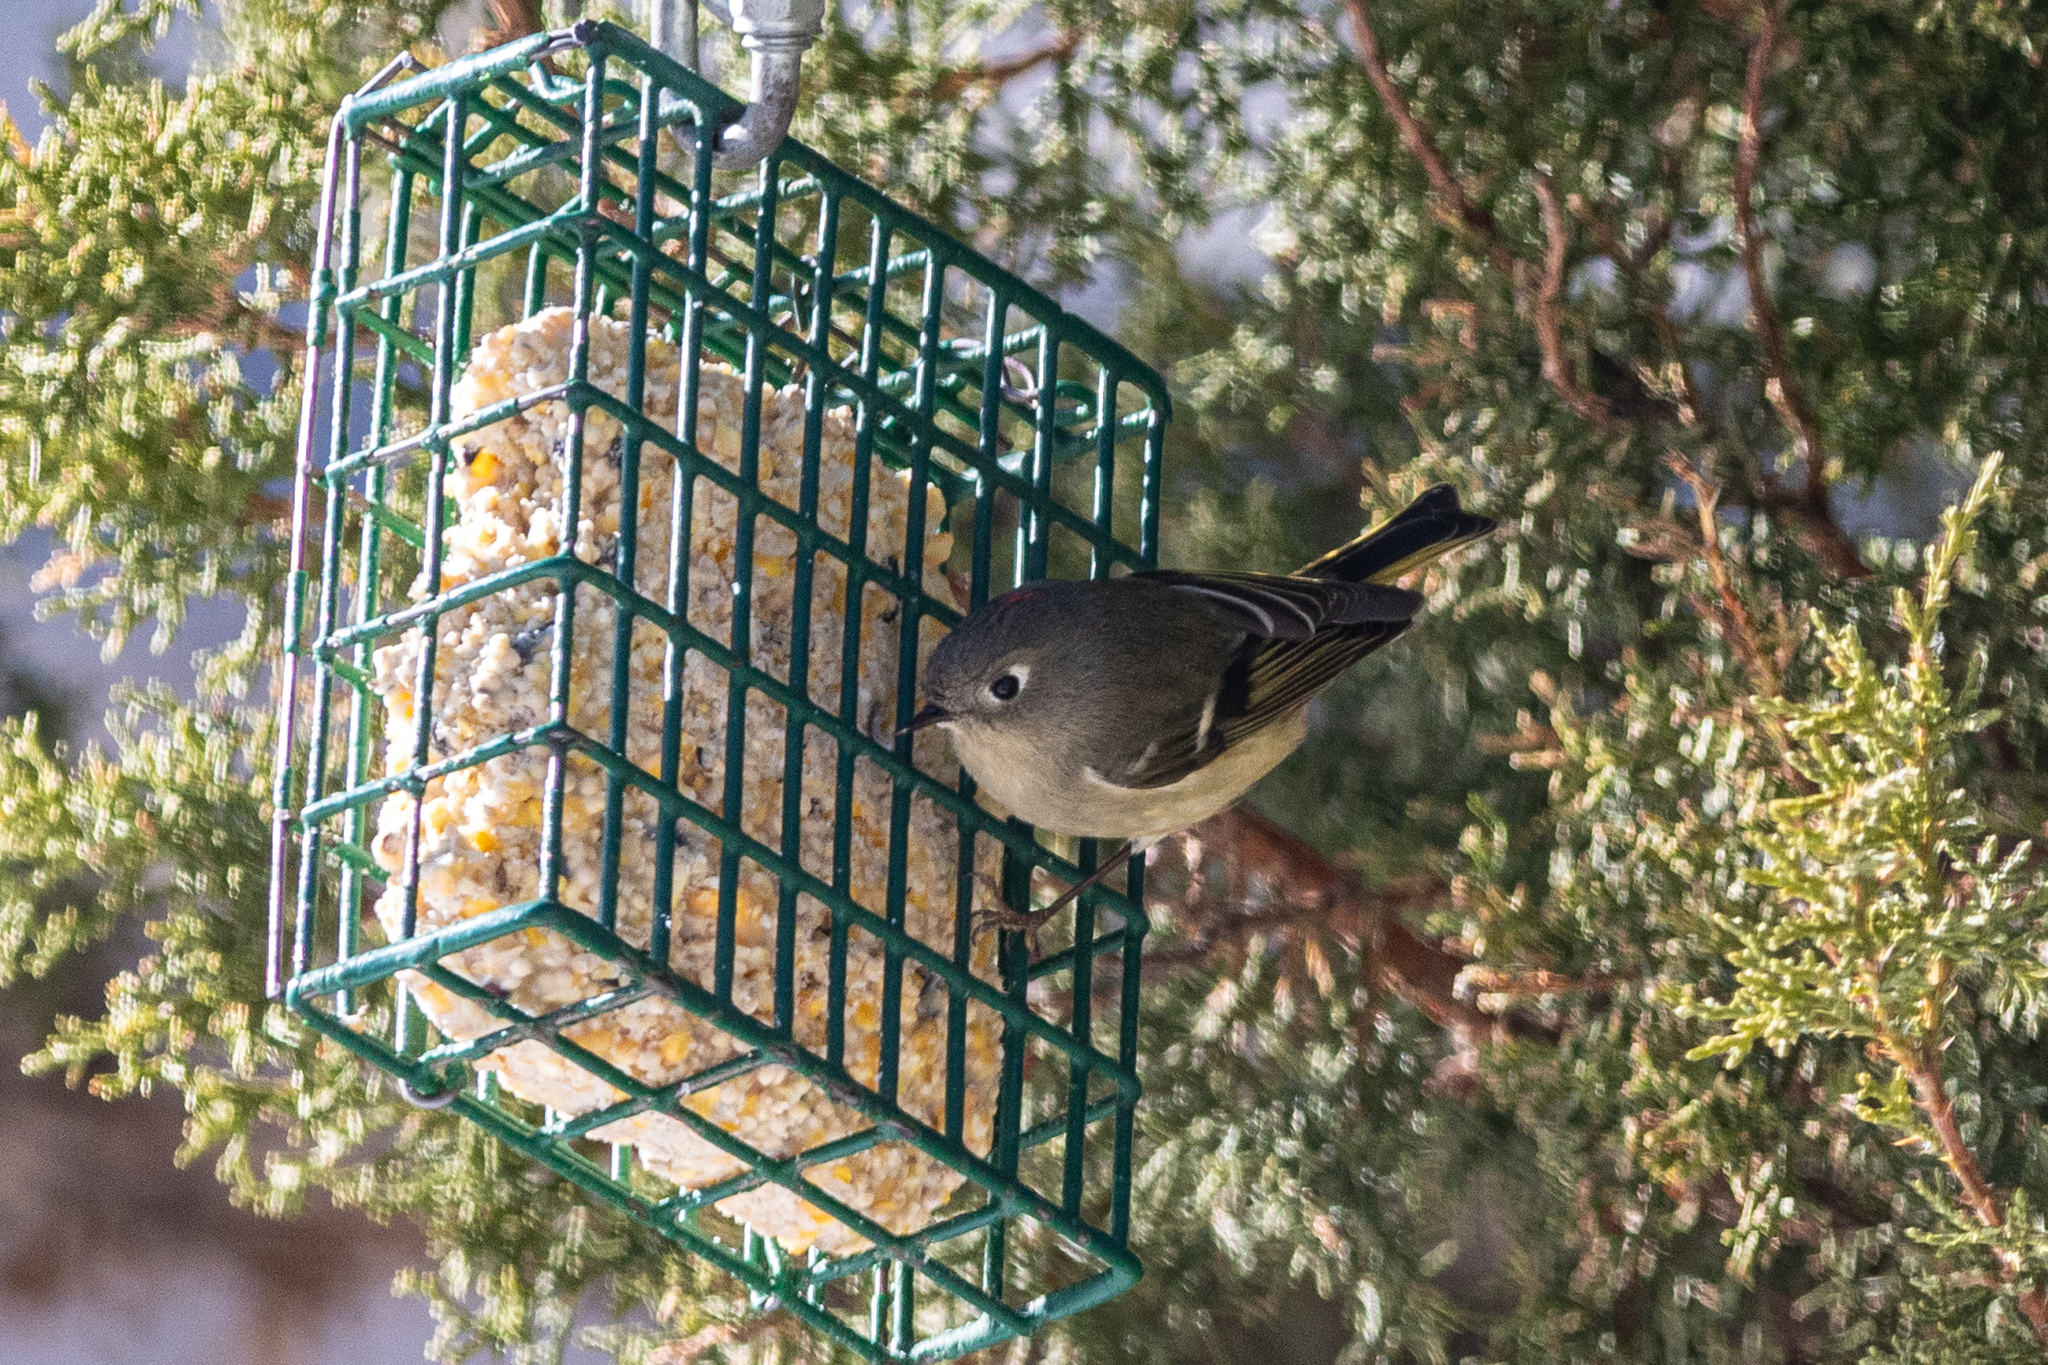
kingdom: Animalia
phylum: Chordata
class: Aves
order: Passeriformes
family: Regulidae
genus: Regulus
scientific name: Regulus calendula
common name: Ruby-crowned kinglet
